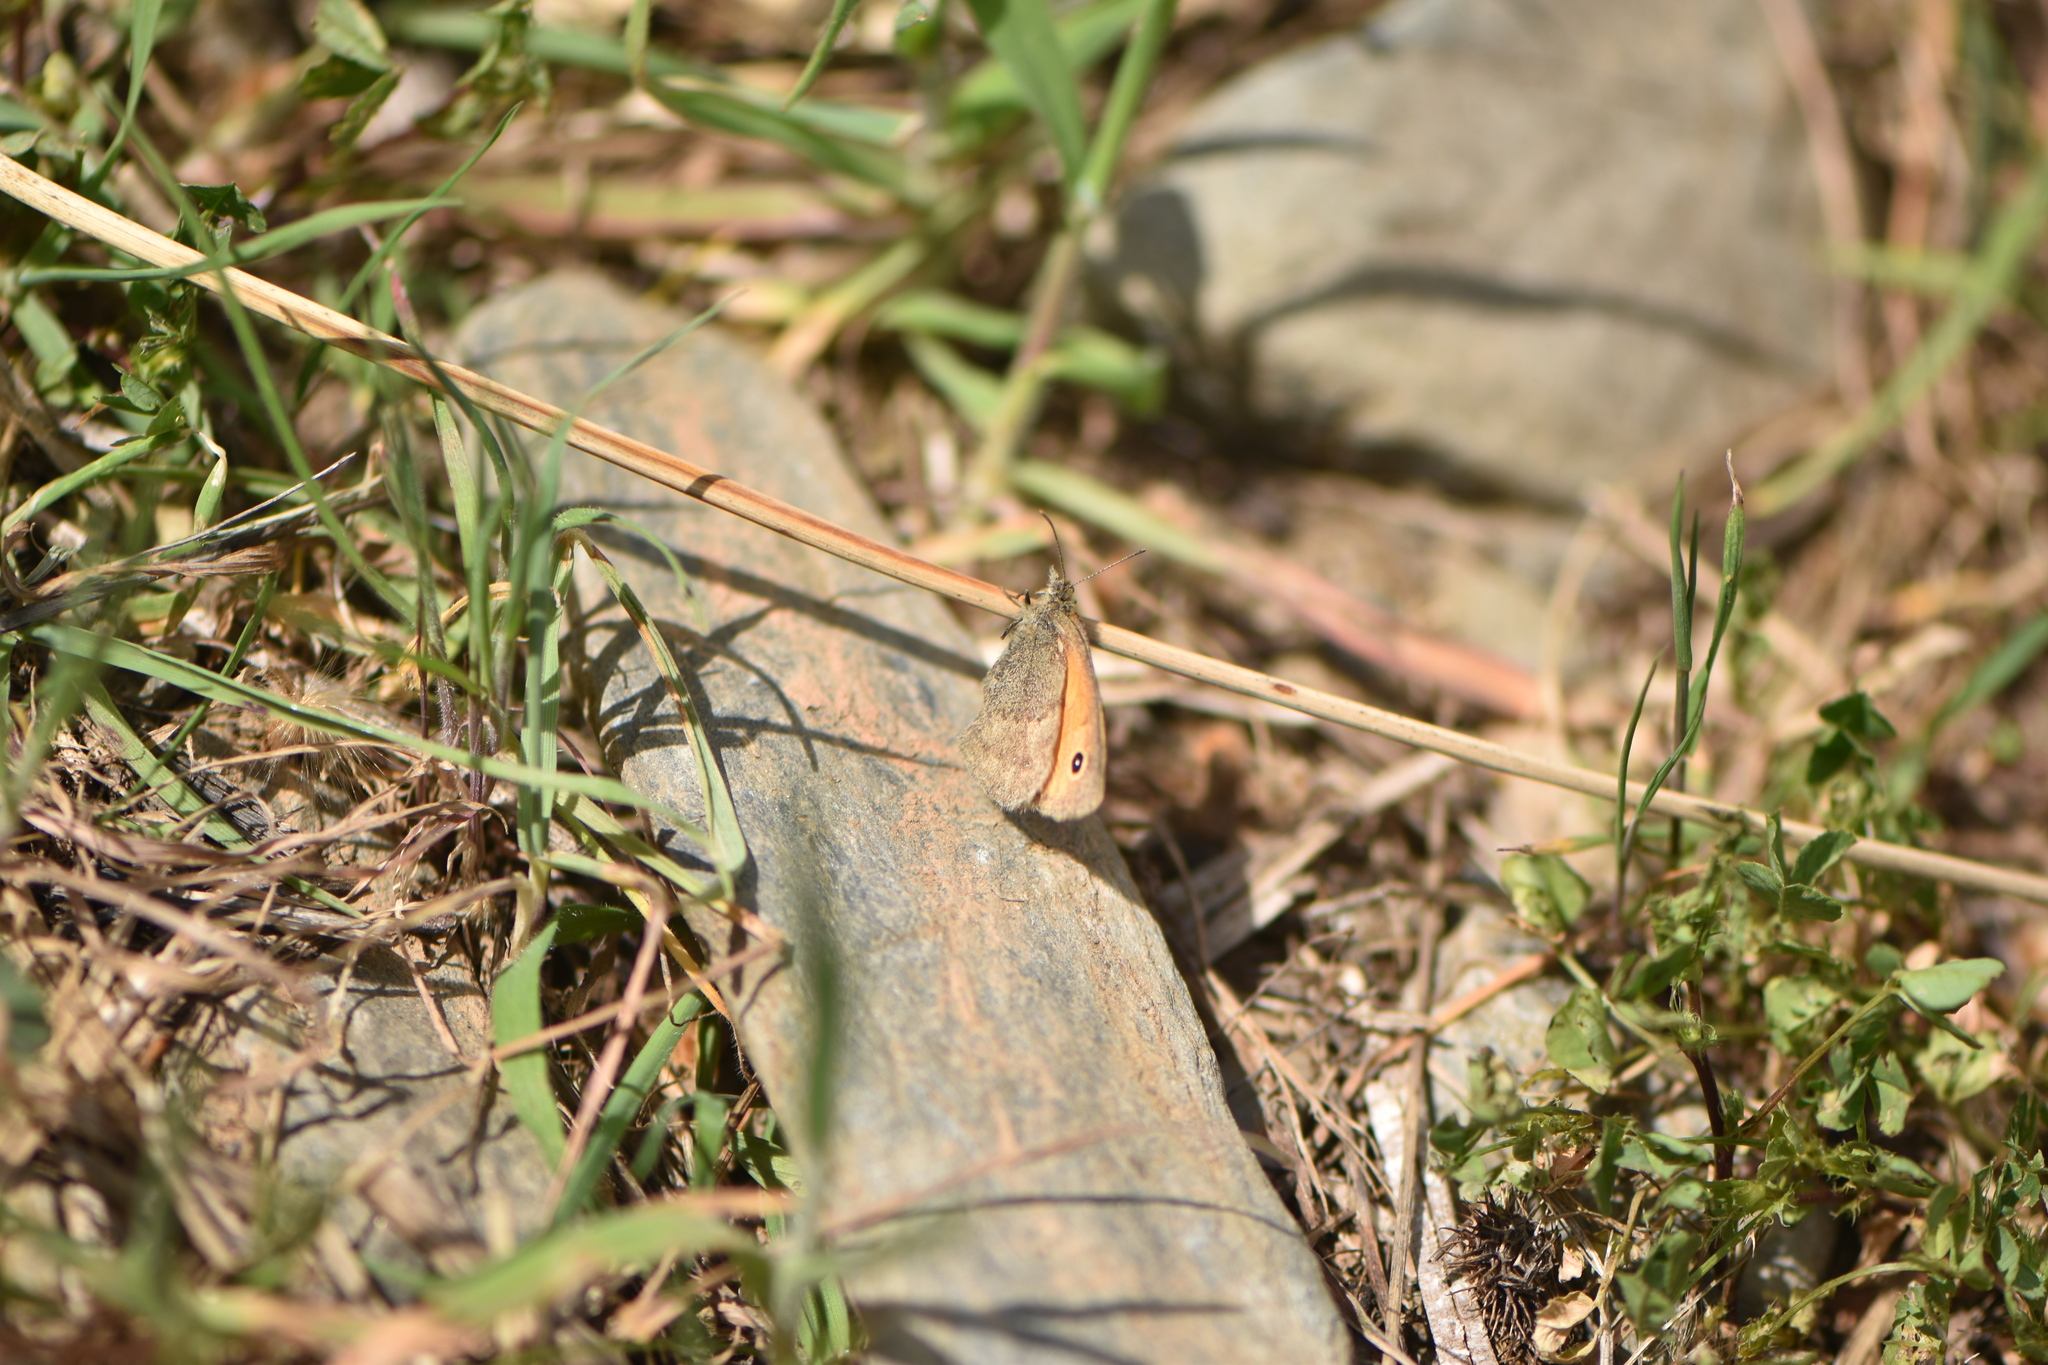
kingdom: Animalia
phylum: Arthropoda
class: Insecta
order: Lepidoptera
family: Nymphalidae
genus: Coenonympha
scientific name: Coenonympha pamphilus
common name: Small heath
